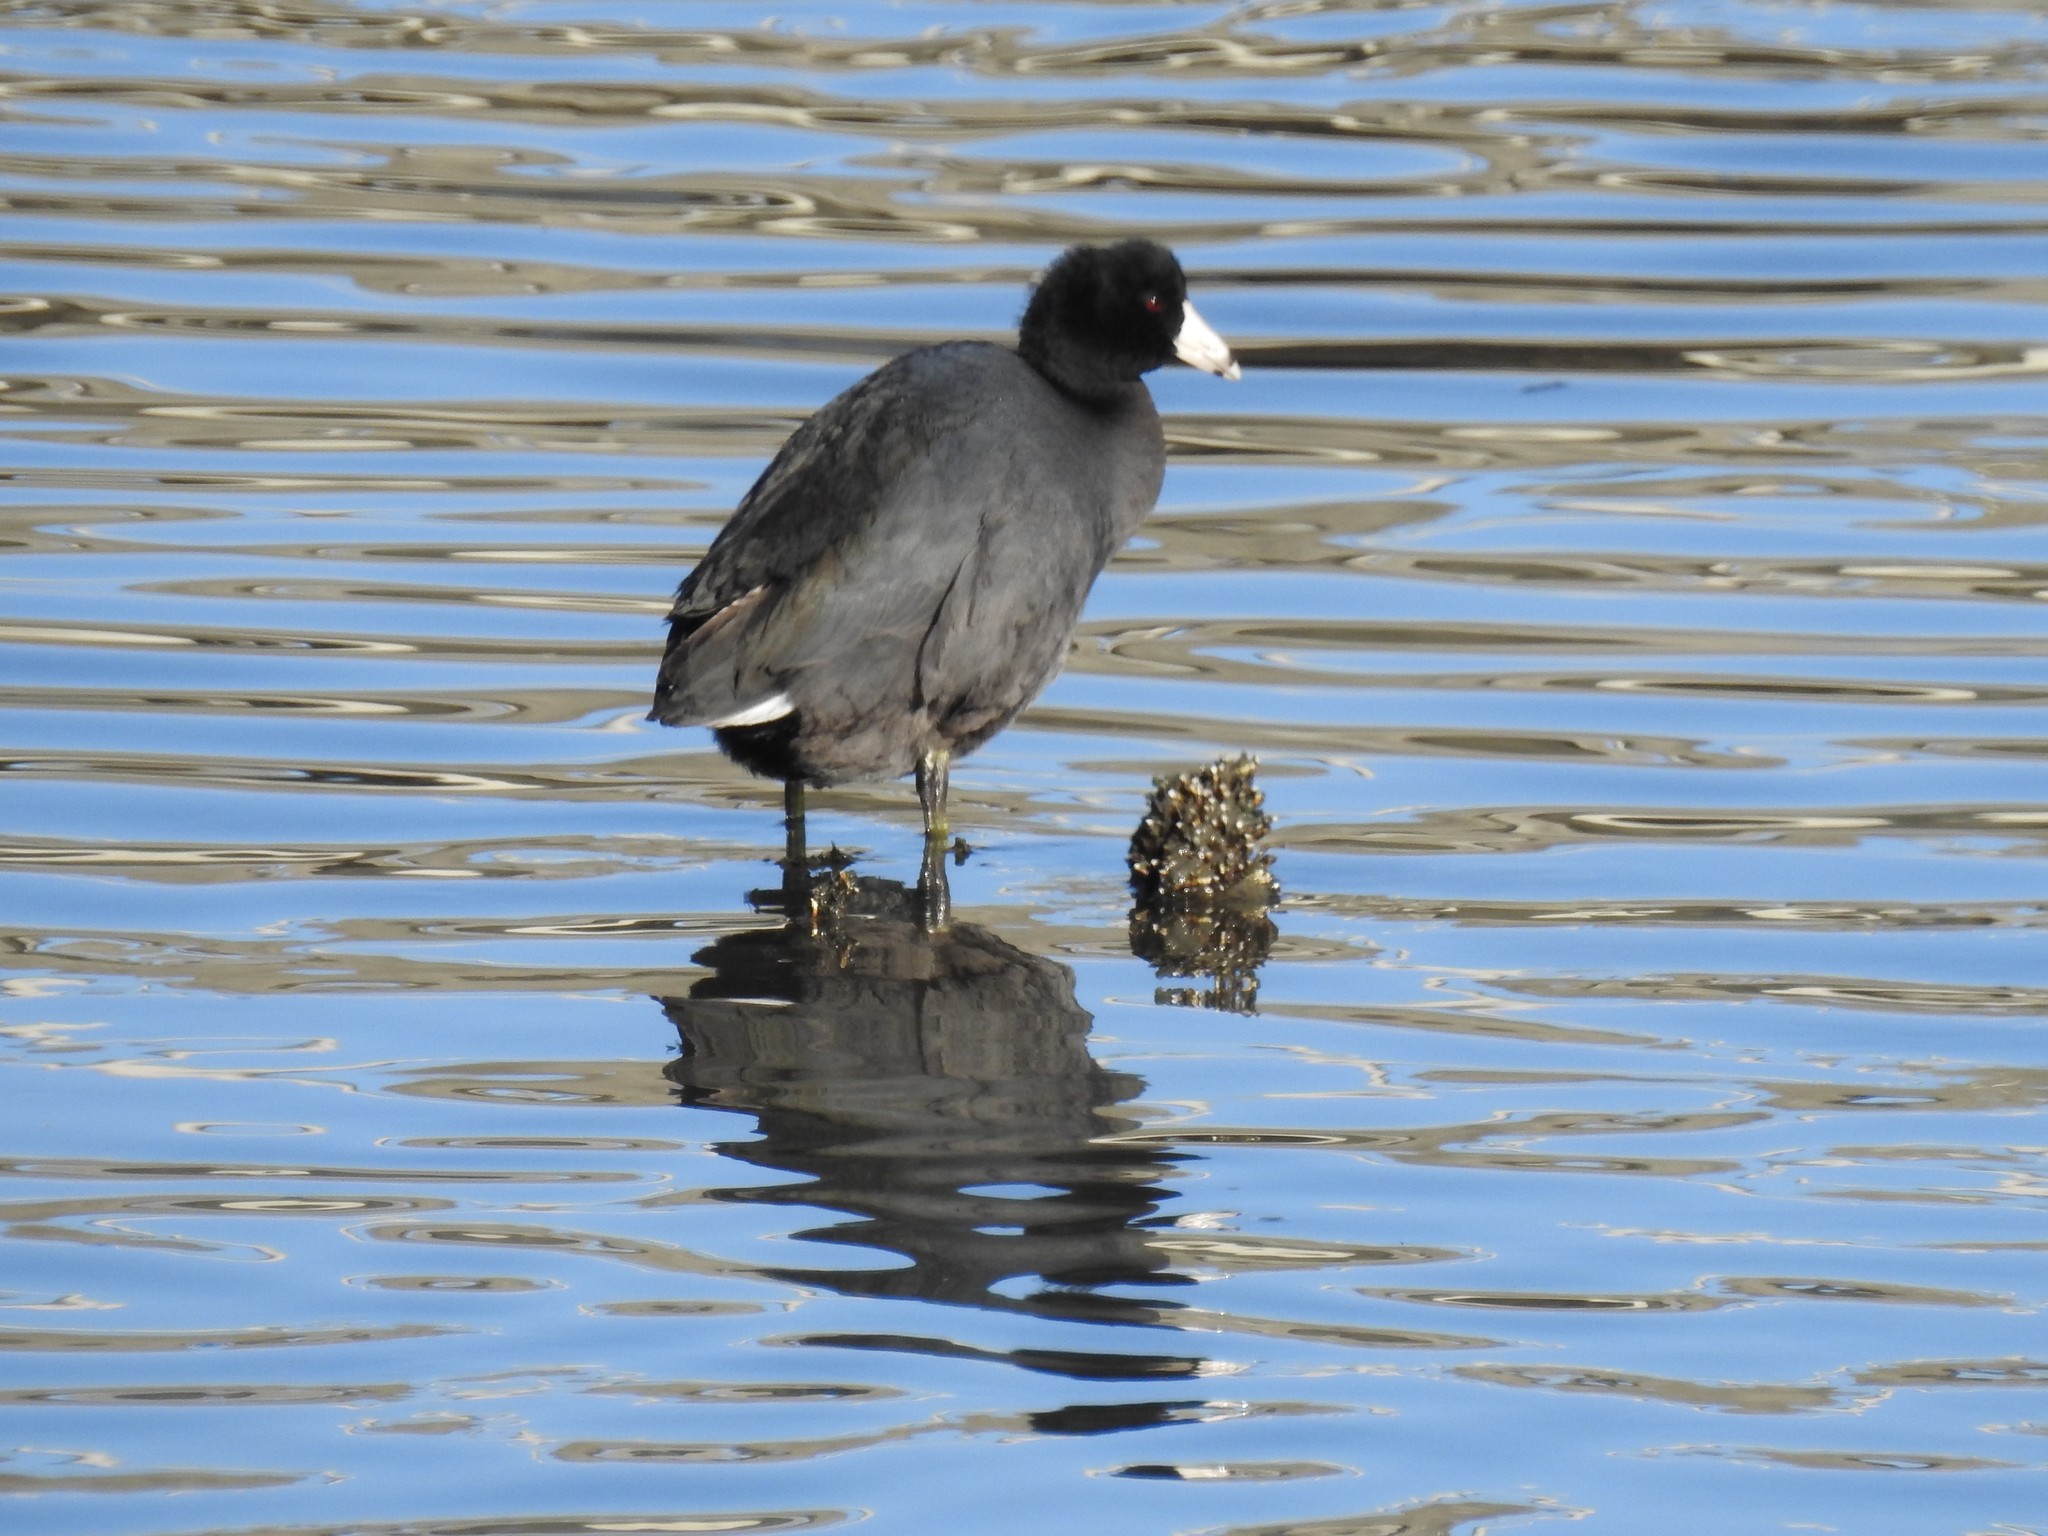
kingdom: Animalia
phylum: Chordata
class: Aves
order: Gruiformes
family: Rallidae
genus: Fulica
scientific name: Fulica americana
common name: American coot
